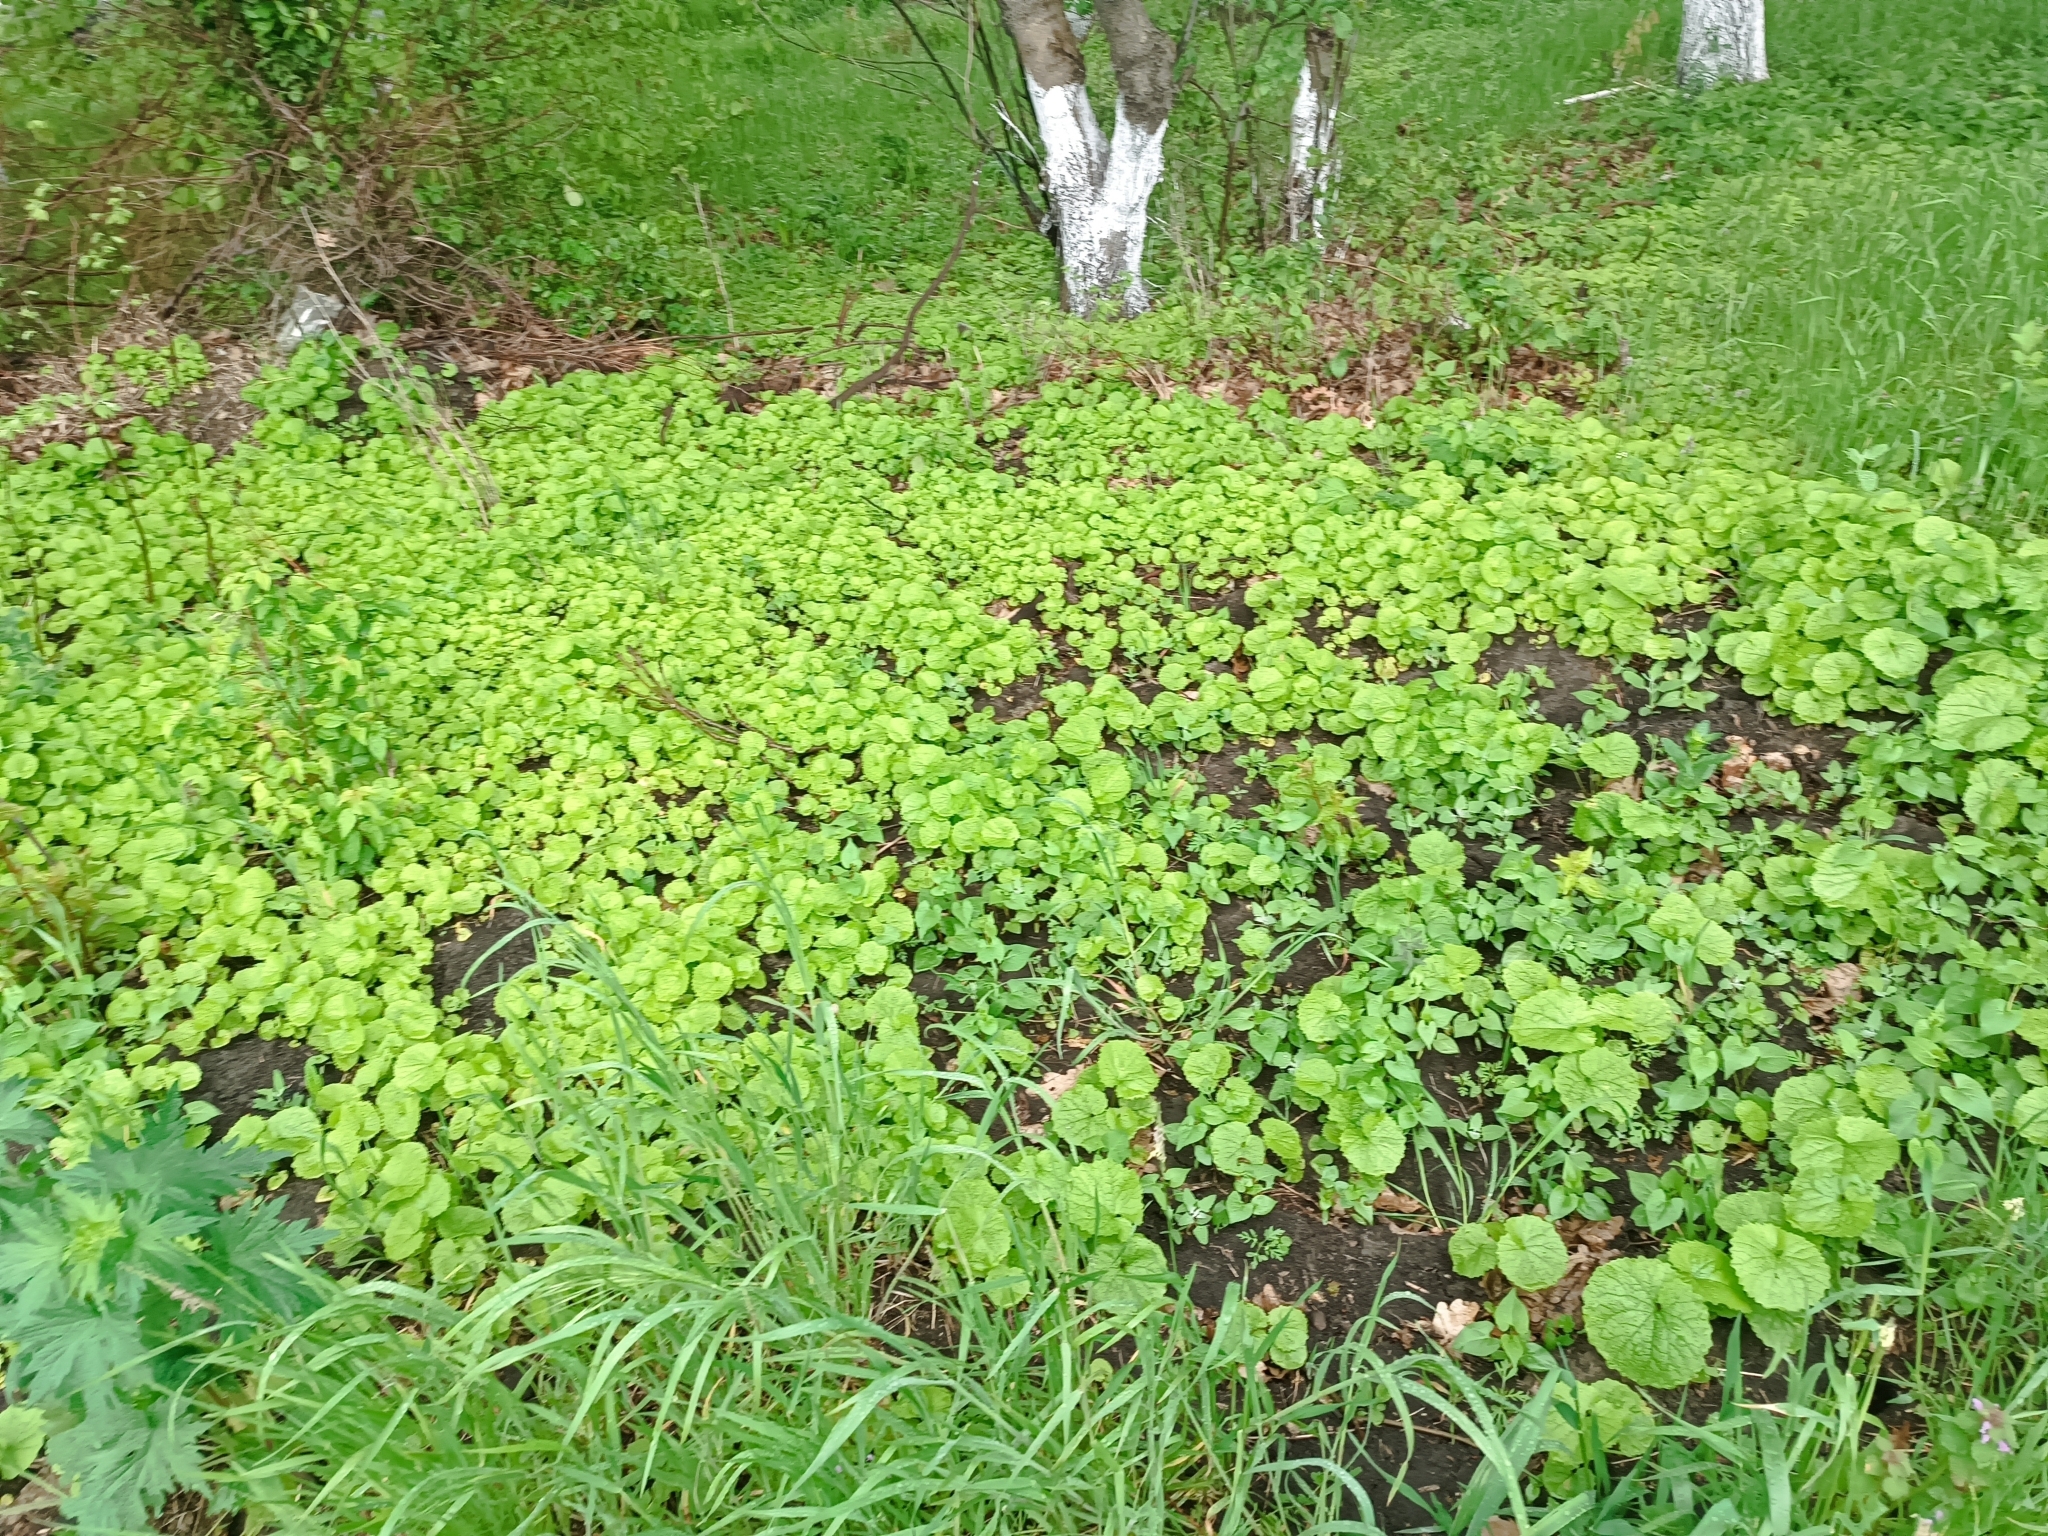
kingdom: Plantae
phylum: Tracheophyta
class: Magnoliopsida
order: Brassicales
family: Brassicaceae
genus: Alliaria
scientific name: Alliaria petiolata
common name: Garlic mustard
